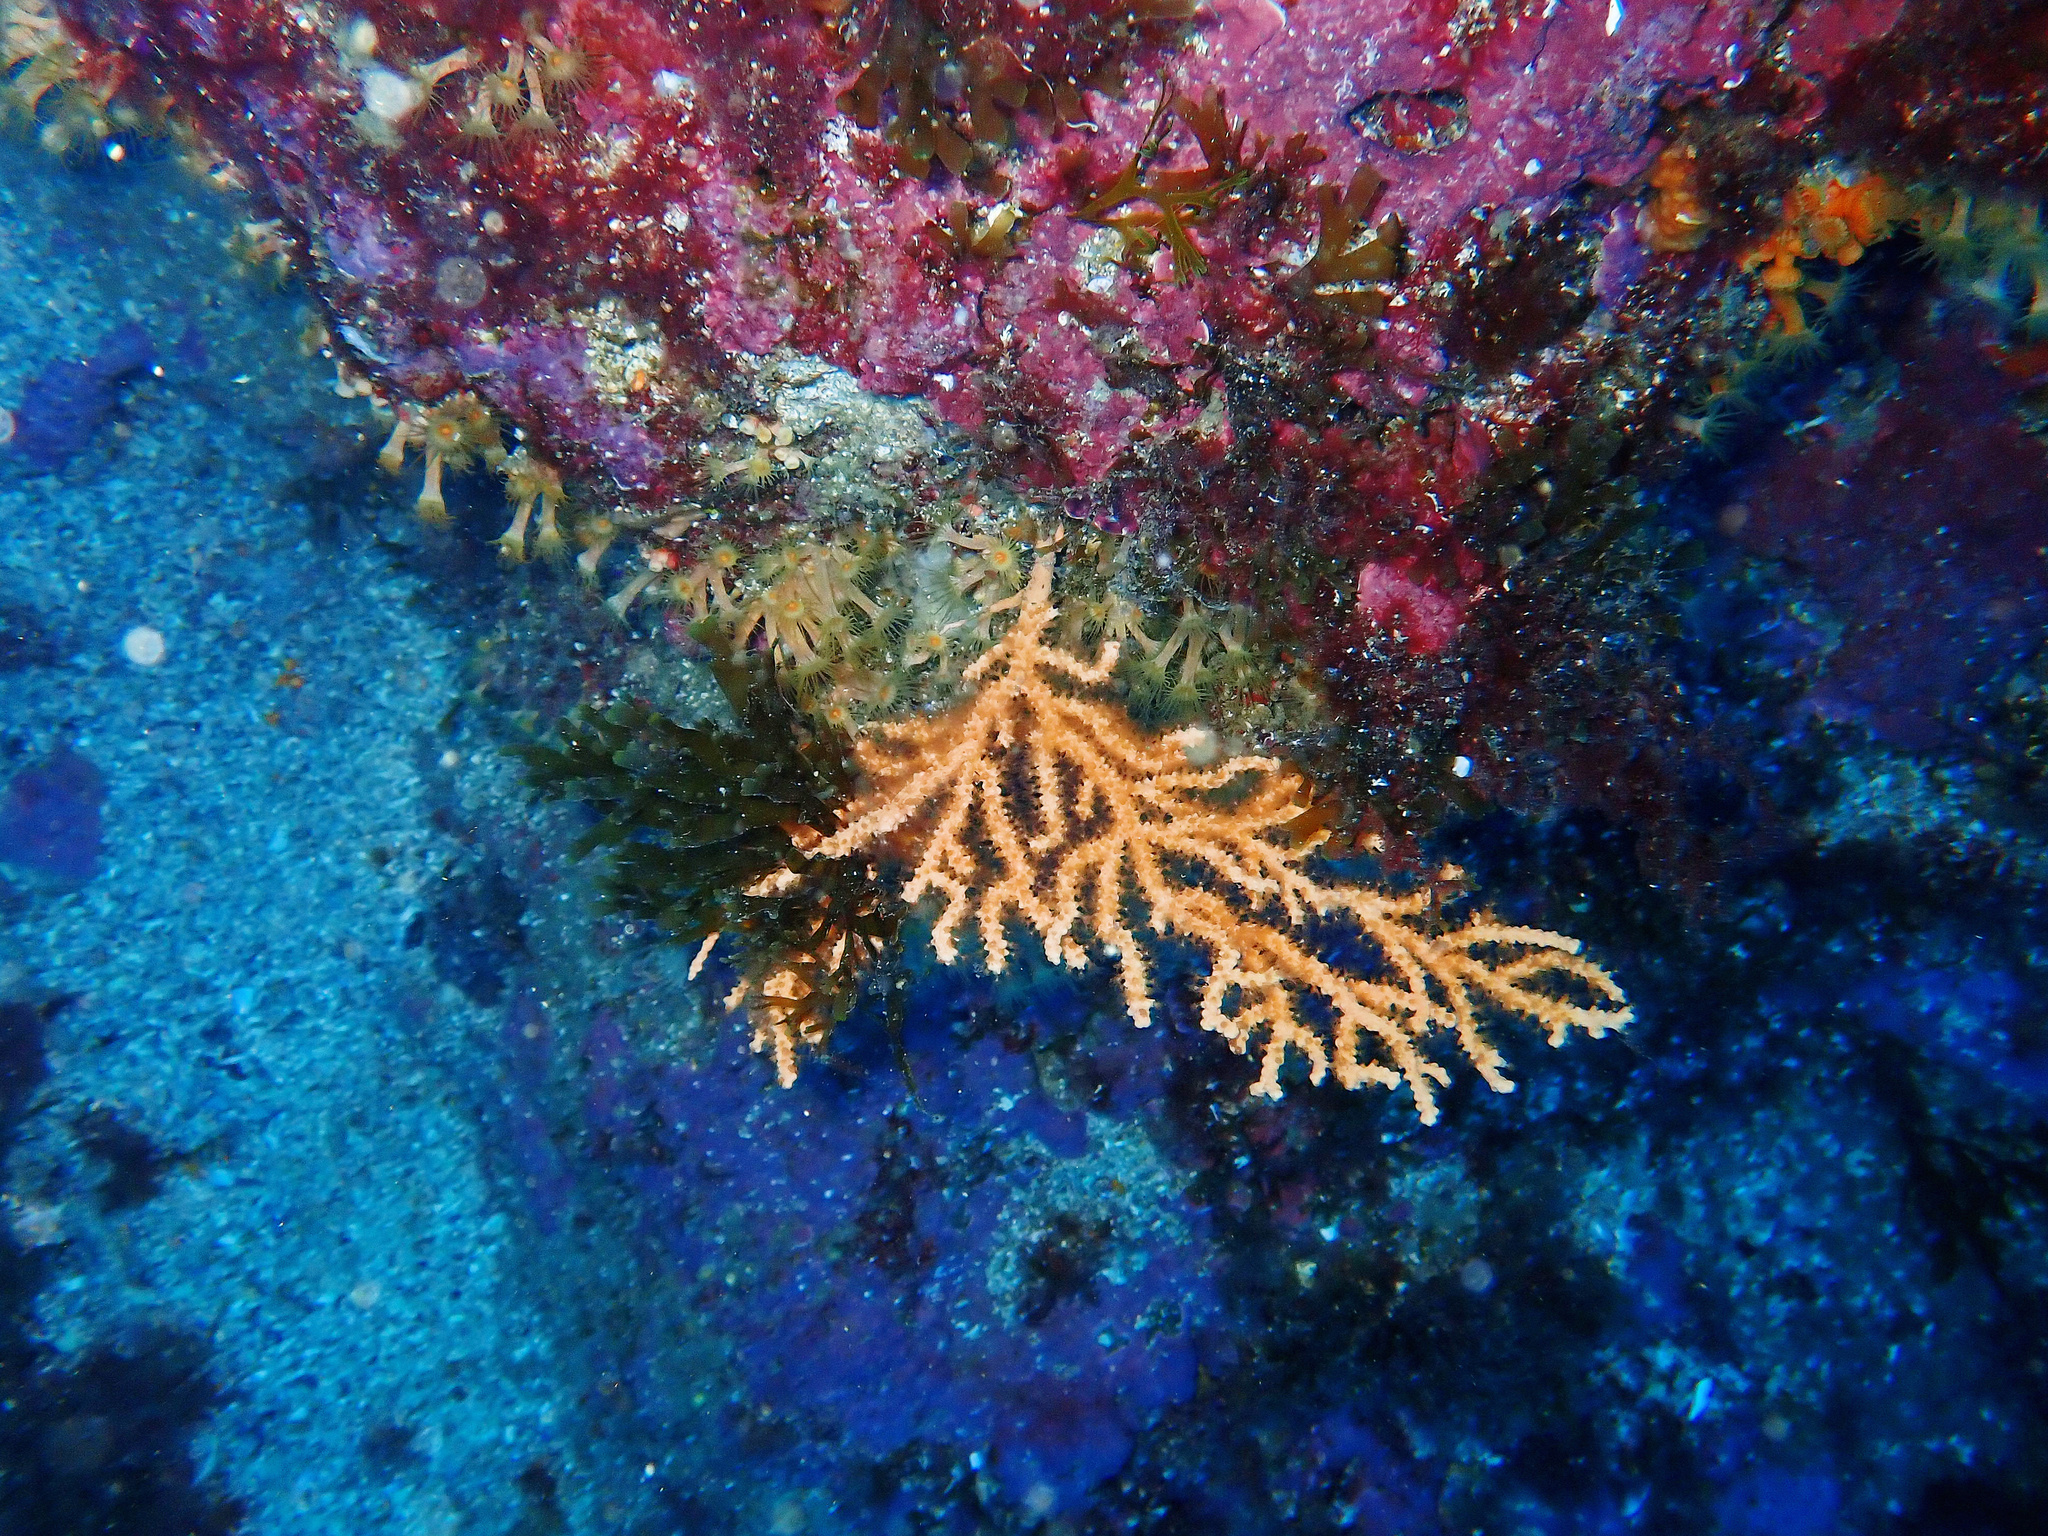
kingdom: Animalia
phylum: Cnidaria
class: Anthozoa
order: Malacalcyonacea
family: Eunicellidae
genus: Eunicella
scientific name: Eunicella cavolini
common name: Yellow gorgonian
